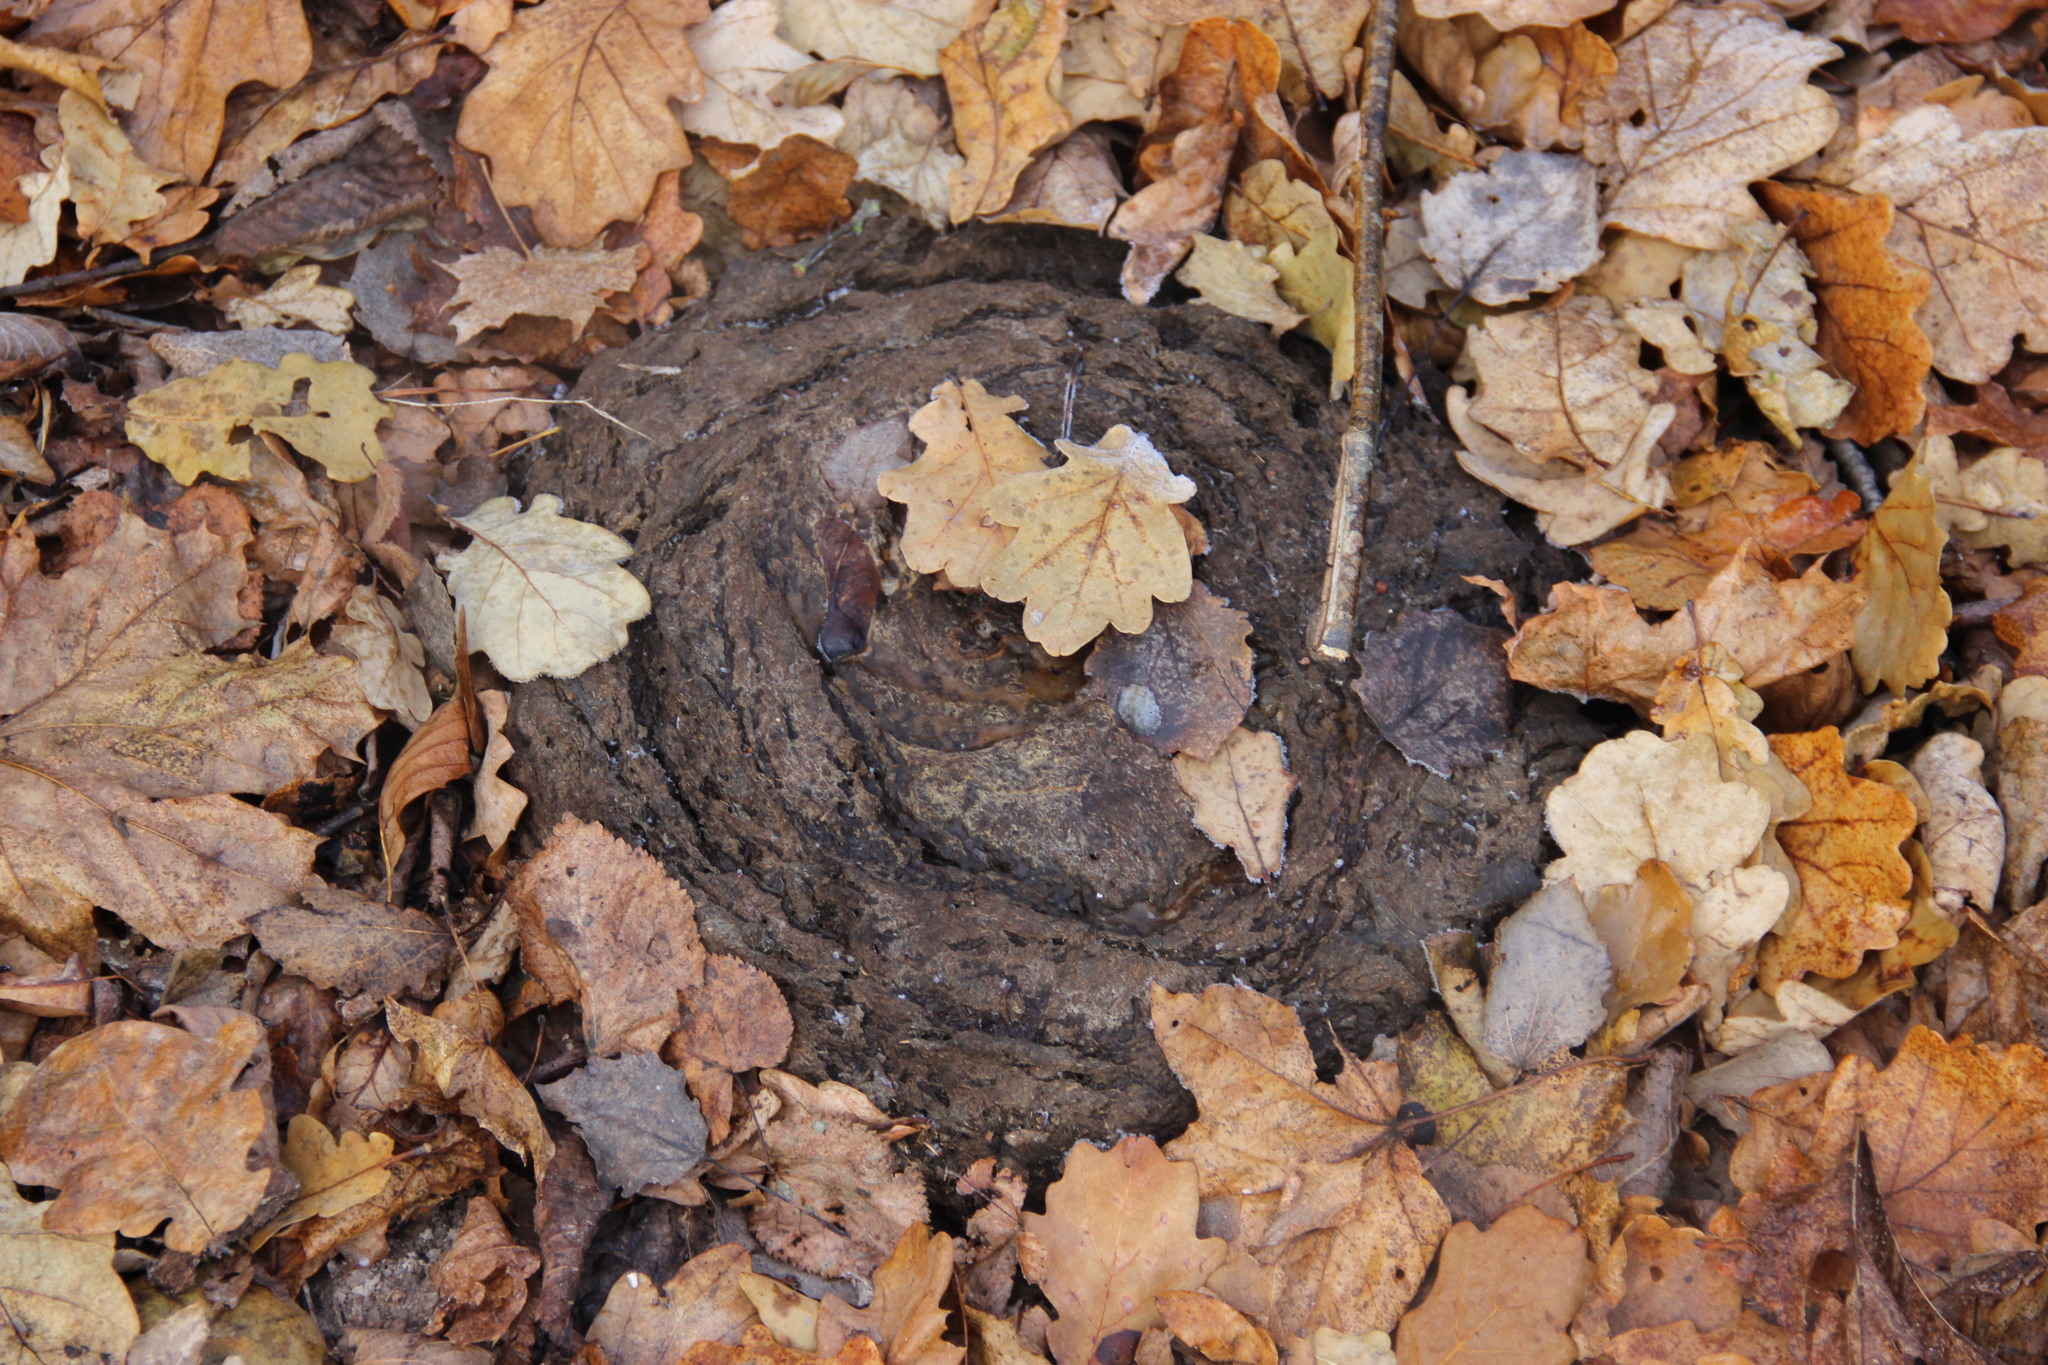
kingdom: Animalia
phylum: Chordata
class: Mammalia
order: Artiodactyla
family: Bovidae
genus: Bison
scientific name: Bison bonasus
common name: European bison
